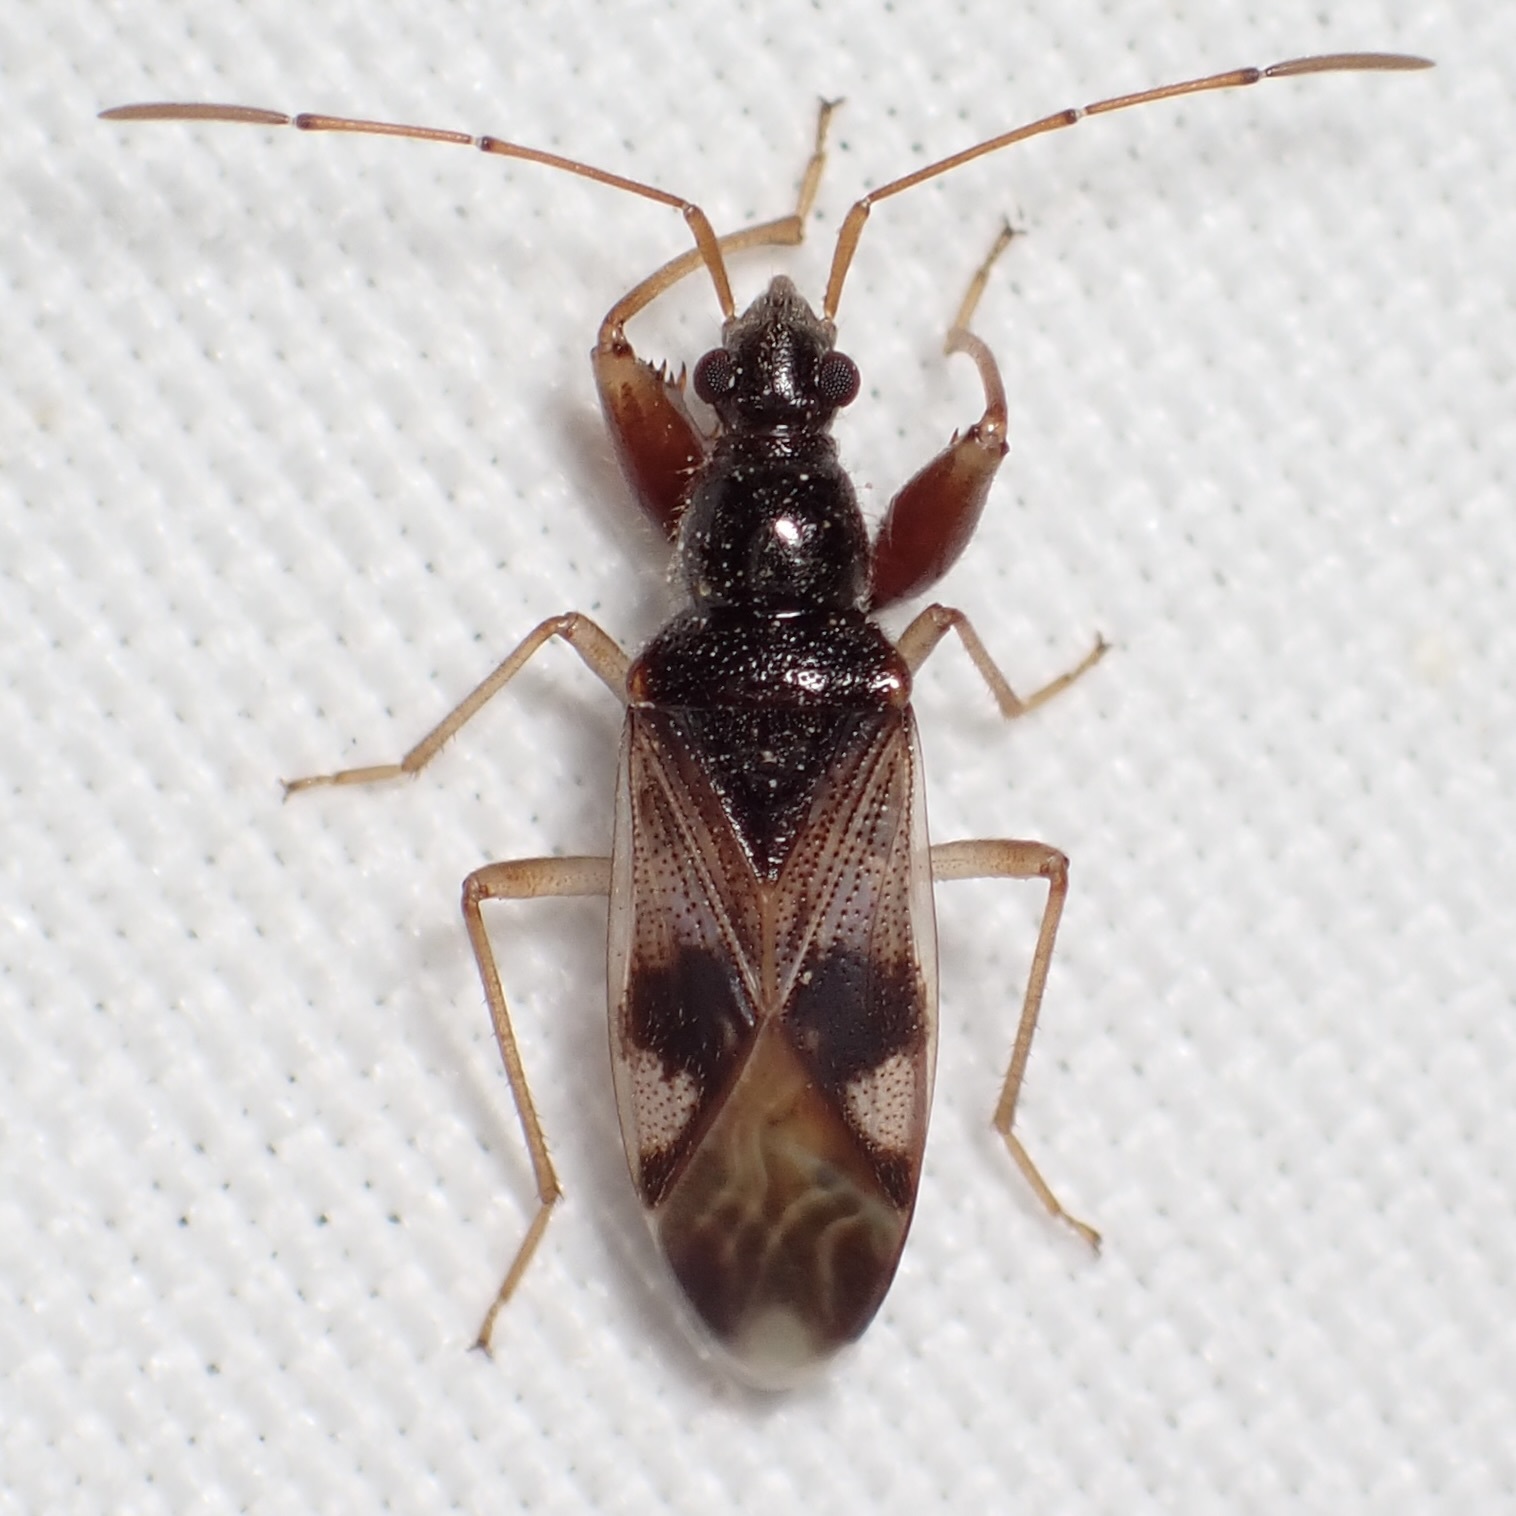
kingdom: Animalia
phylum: Arthropoda
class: Insecta
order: Hemiptera
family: Rhyparochromidae
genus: Pseudopamera
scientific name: Pseudopamera nitidula
